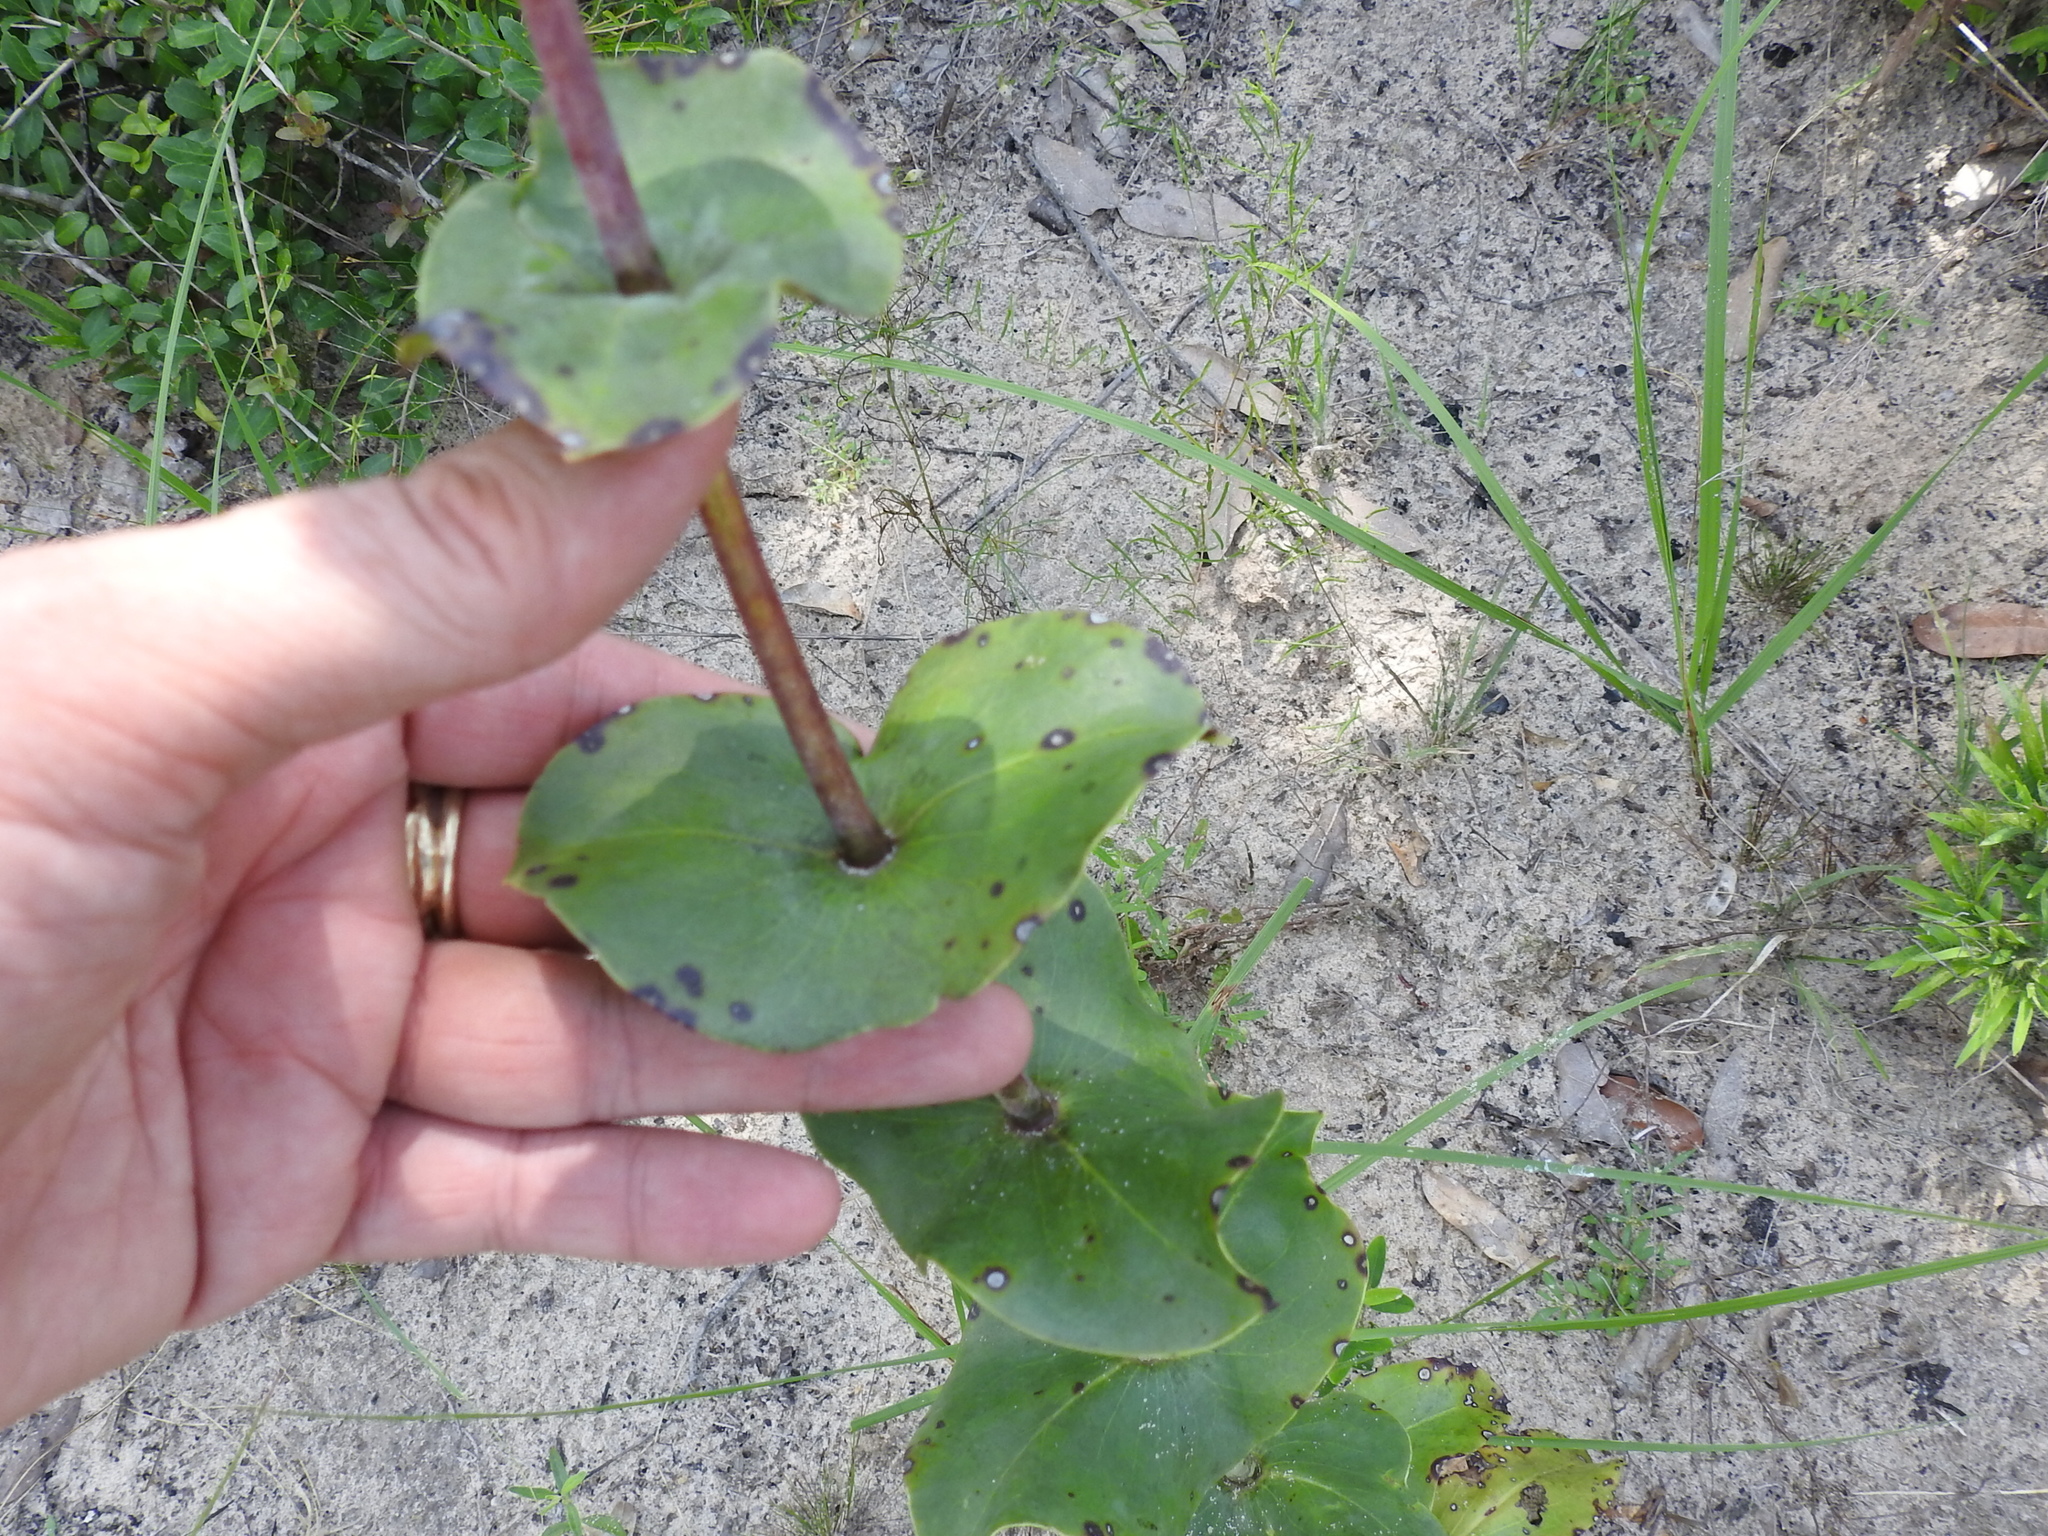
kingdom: Plantae
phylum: Tracheophyta
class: Magnoliopsida
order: Lamiales
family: Plantaginaceae
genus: Penstemon
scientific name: Penstemon murrayanus
